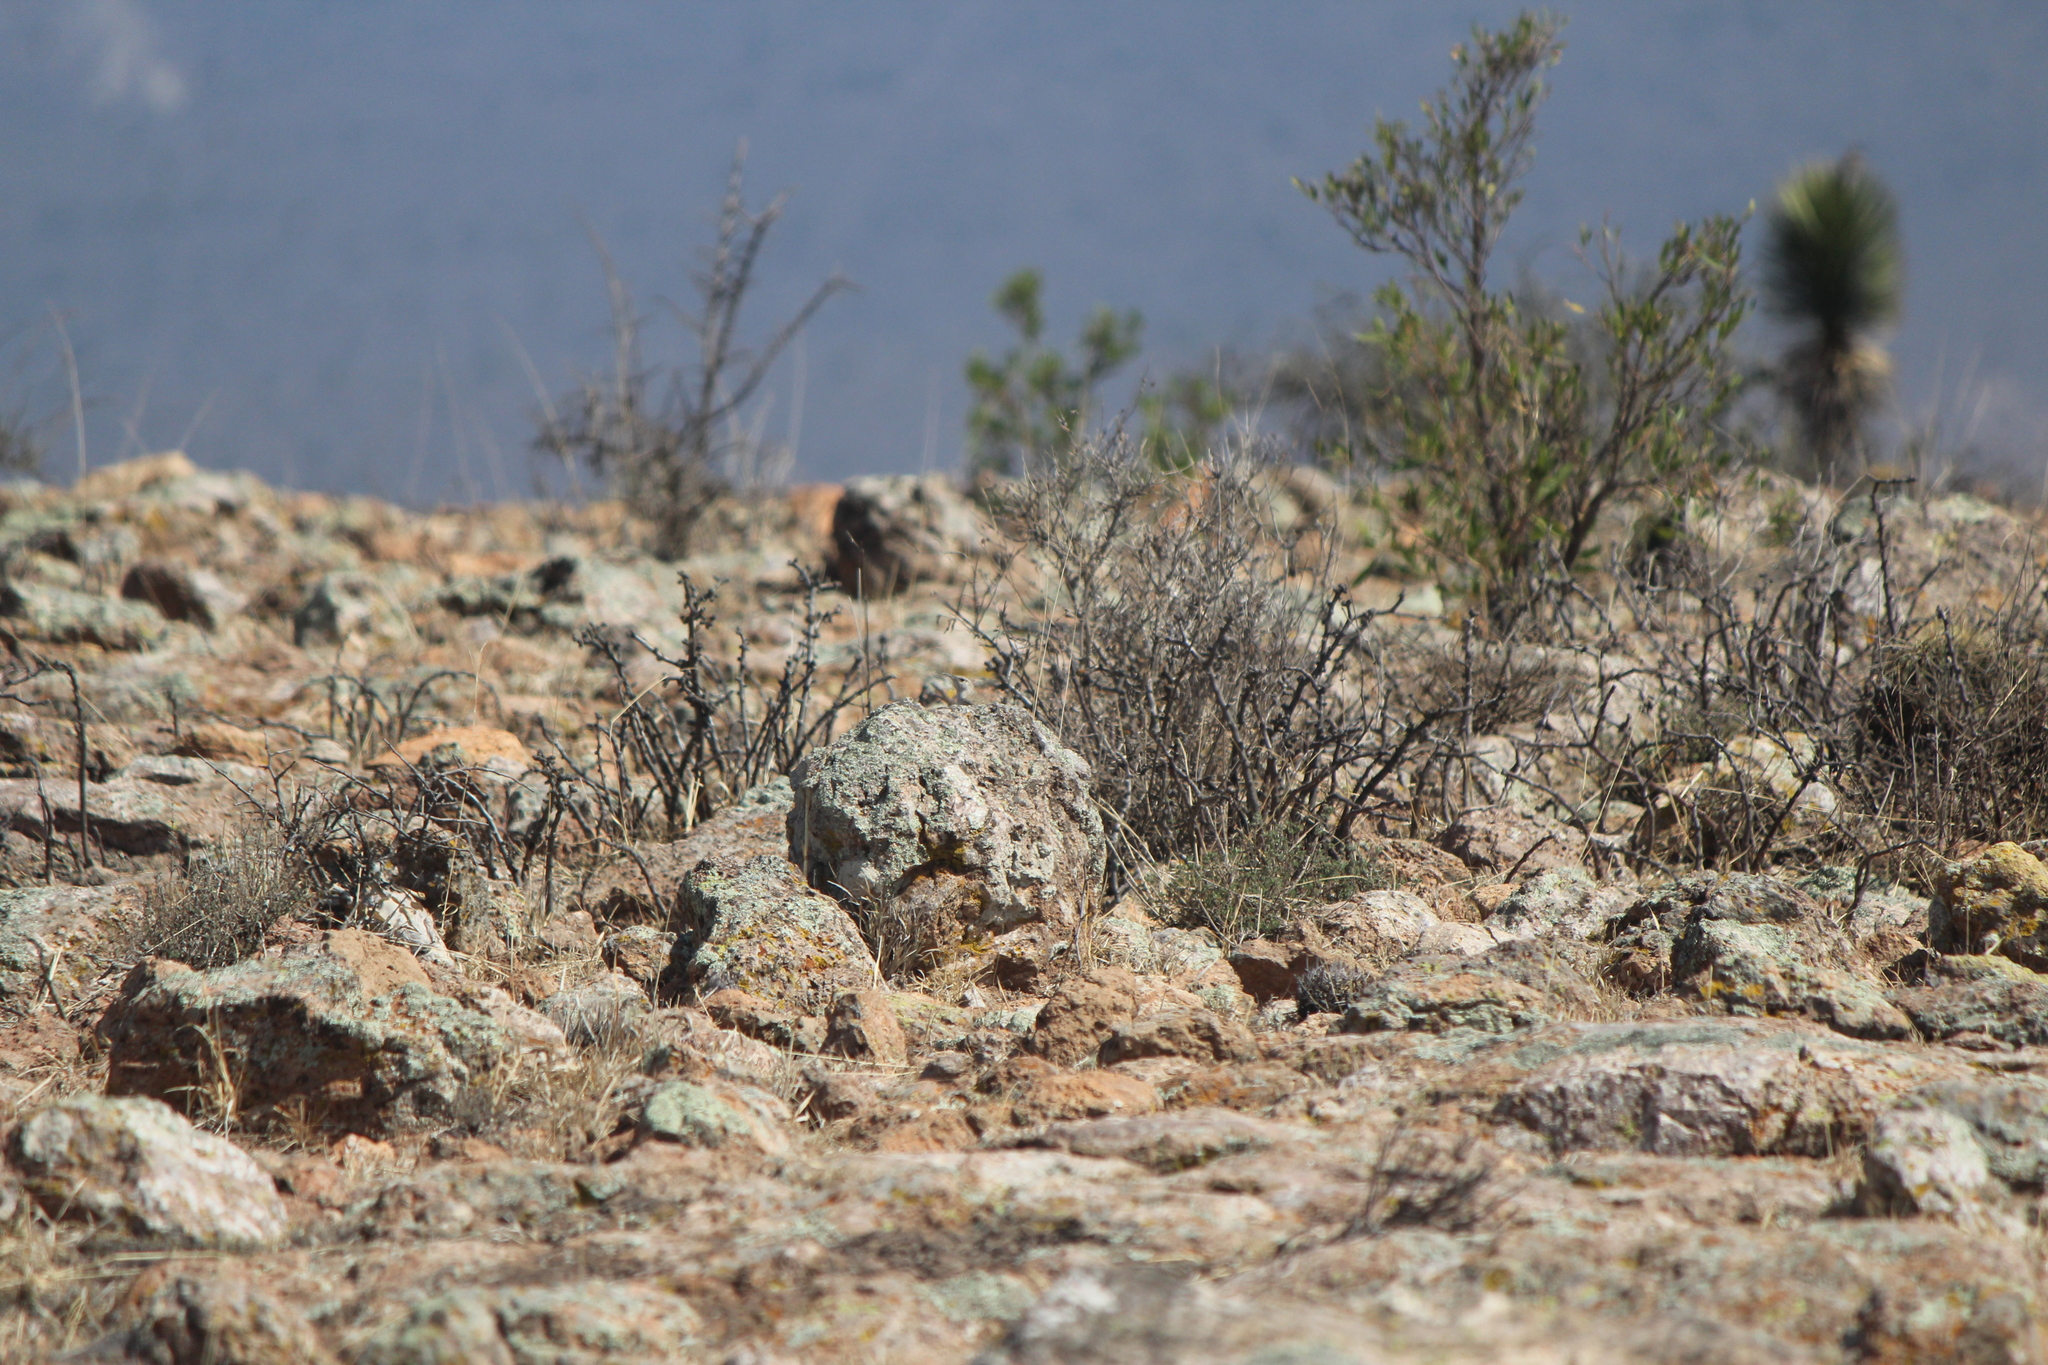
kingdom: Animalia
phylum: Chordata
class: Aves
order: Passeriformes
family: Troglodytidae
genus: Salpinctes
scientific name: Salpinctes obsoletus
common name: Rock wren
